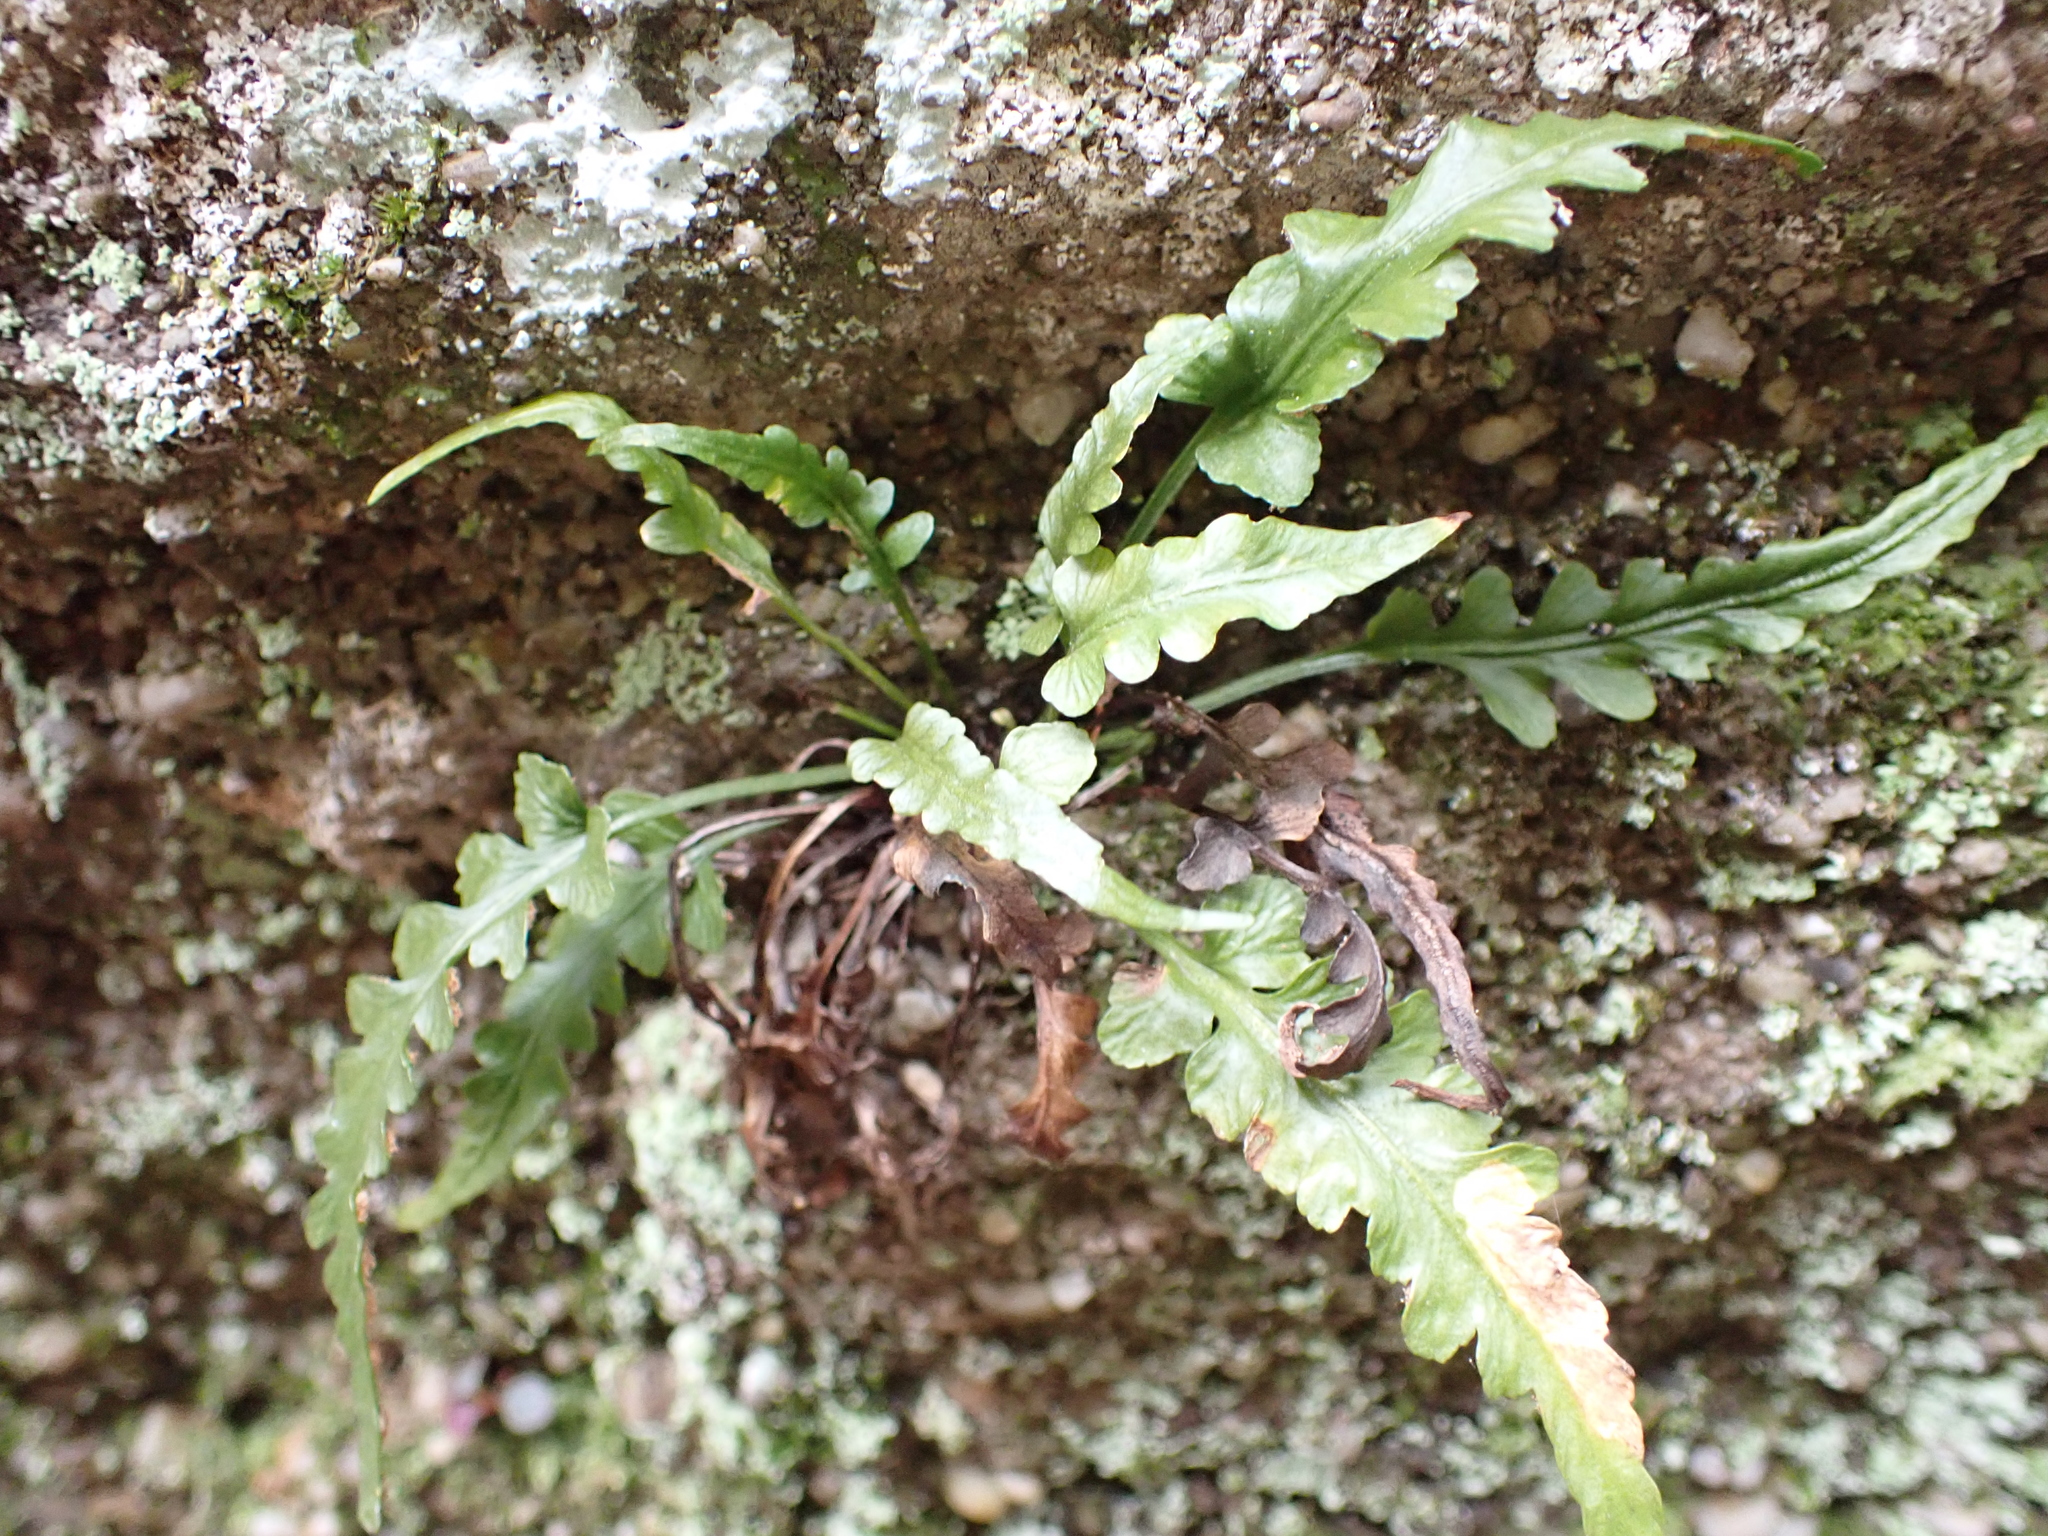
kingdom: Plantae
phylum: Tracheophyta
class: Polypodiopsida
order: Polypodiales
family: Aspleniaceae
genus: Asplenium
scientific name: Asplenium pinnatifidum
